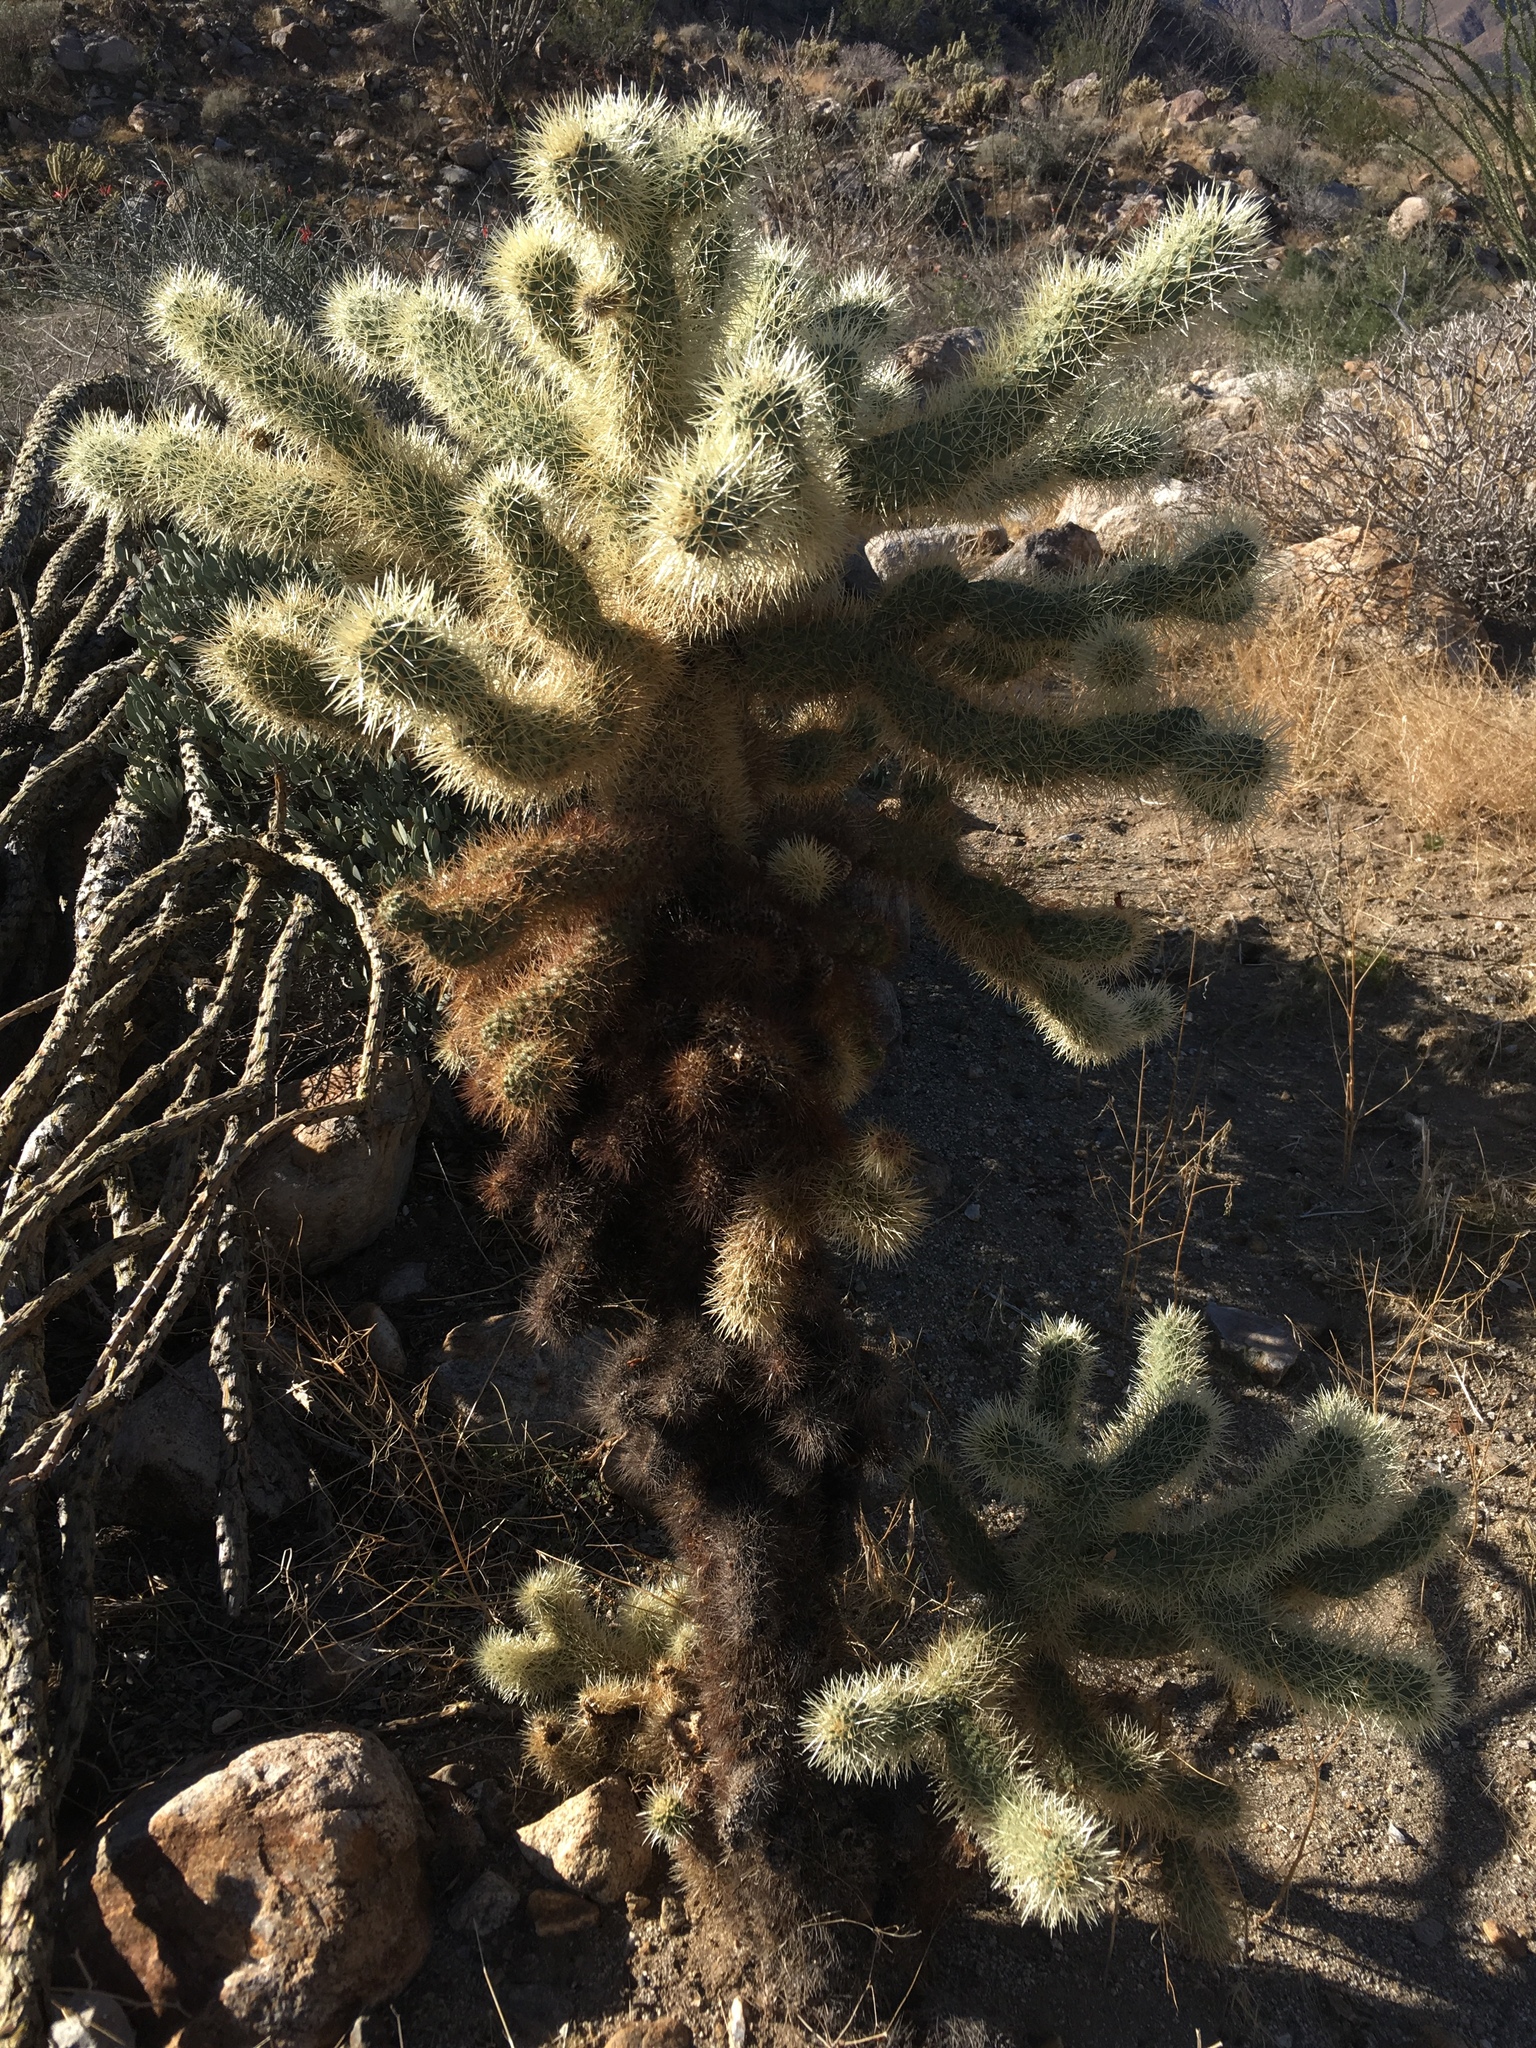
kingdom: Plantae
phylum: Tracheophyta
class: Magnoliopsida
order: Caryophyllales
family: Cactaceae
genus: Cylindropuntia
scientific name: Cylindropuntia fosbergii
